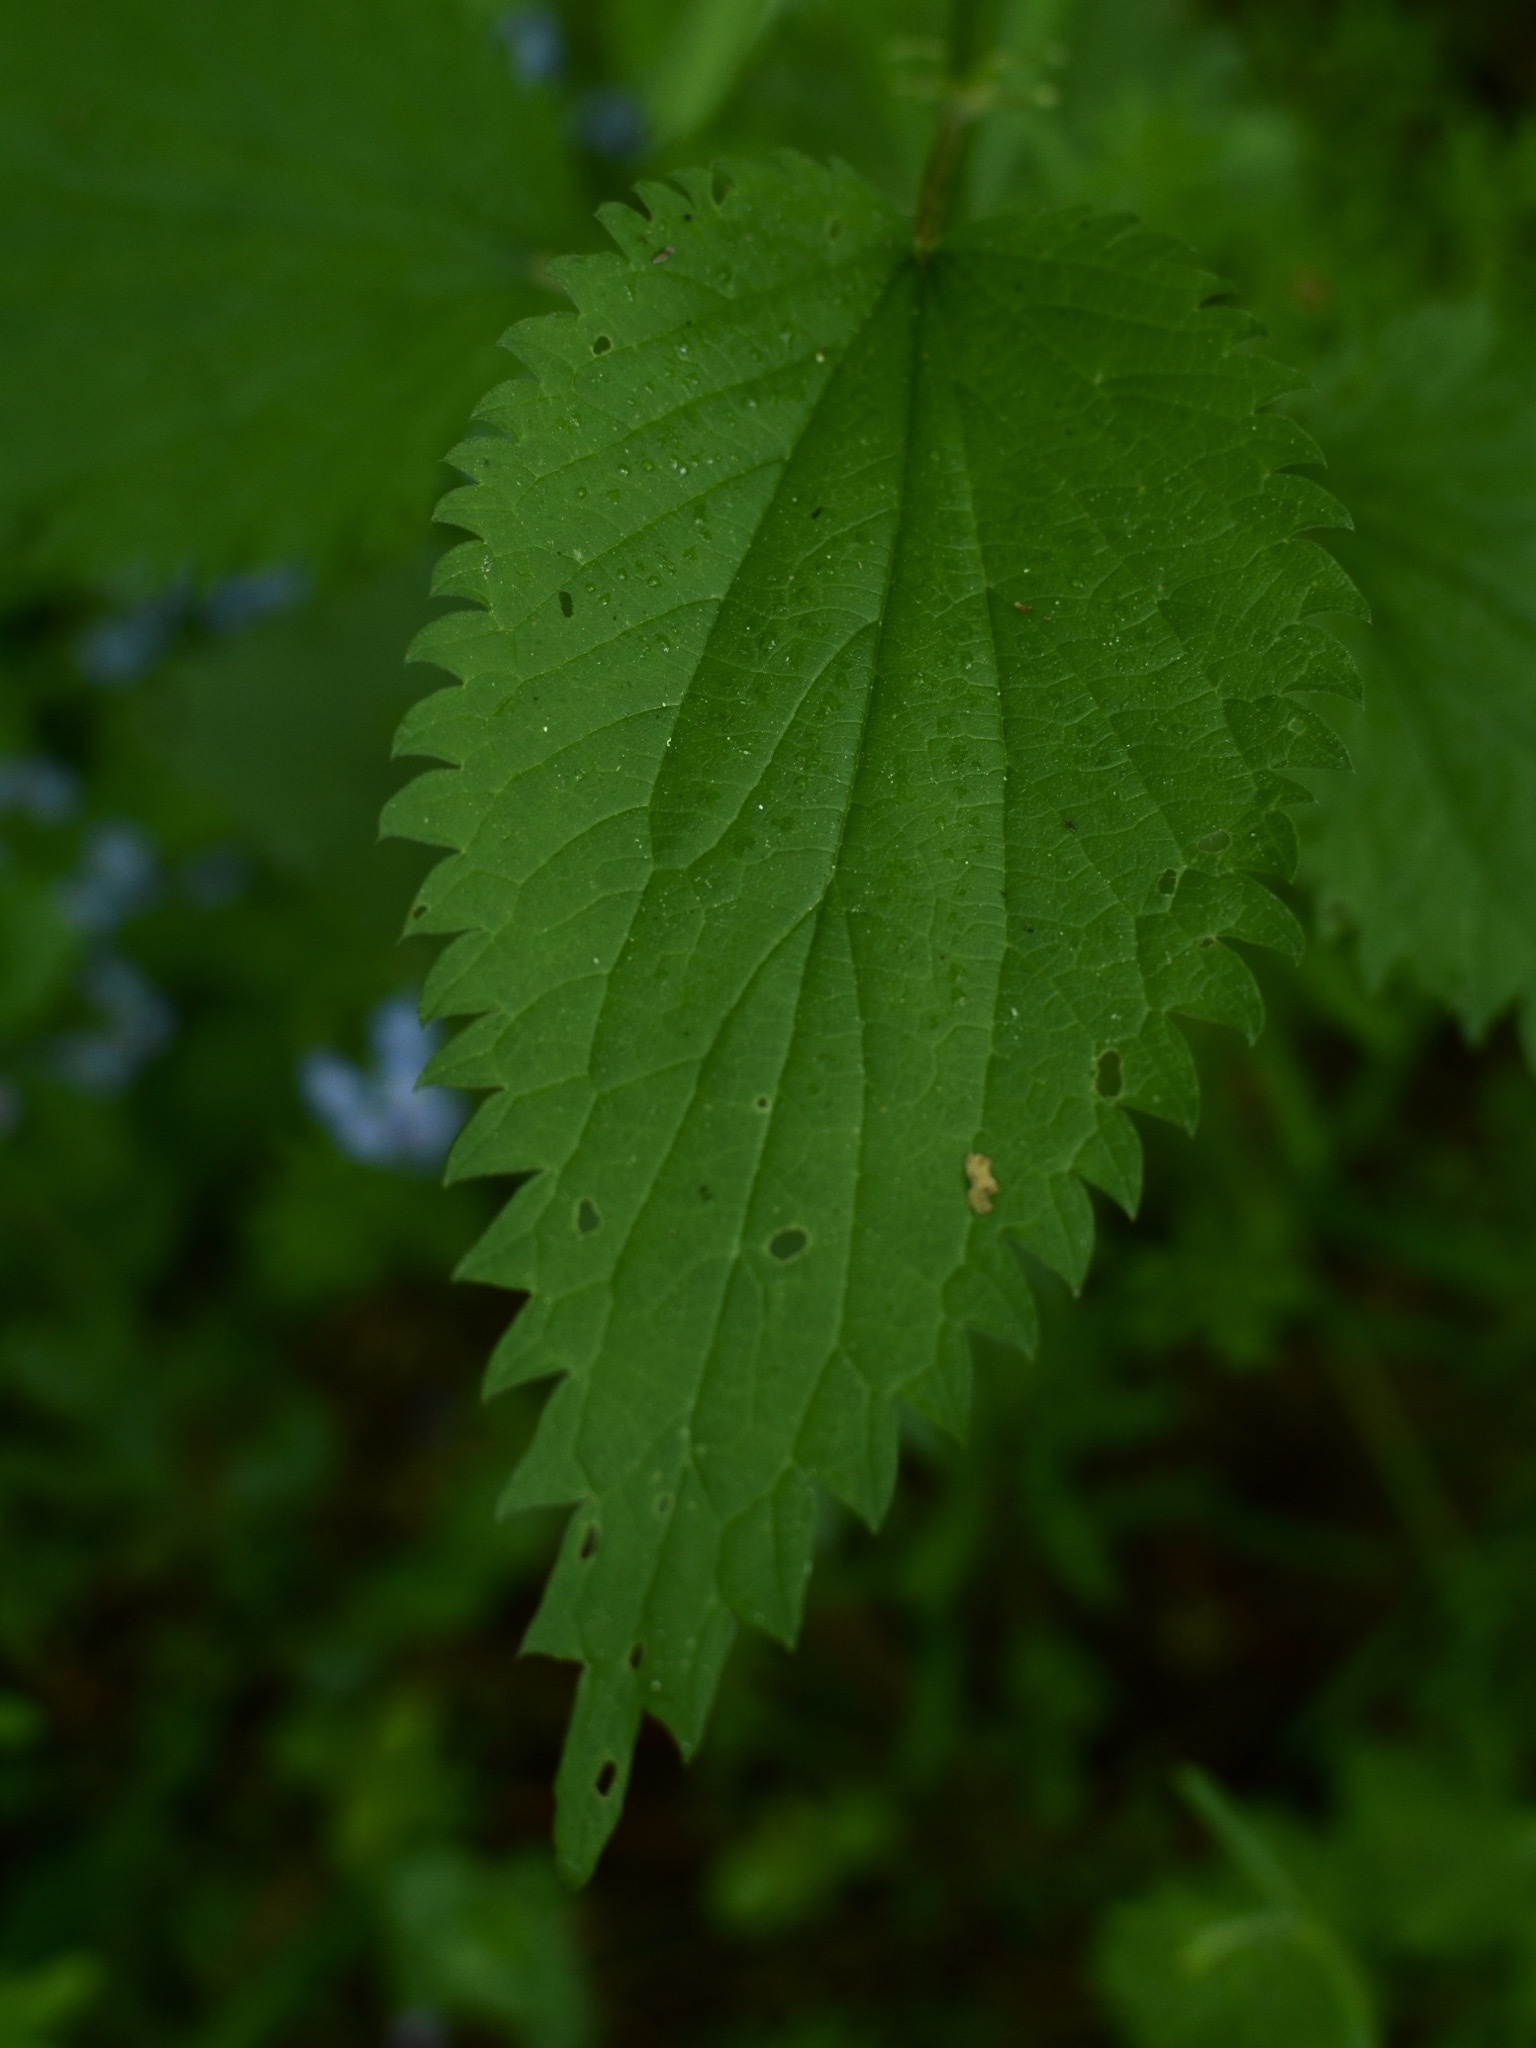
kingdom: Plantae
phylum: Tracheophyta
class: Magnoliopsida
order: Rosales
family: Urticaceae
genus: Urtica
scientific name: Urtica dioica
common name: Common nettle
